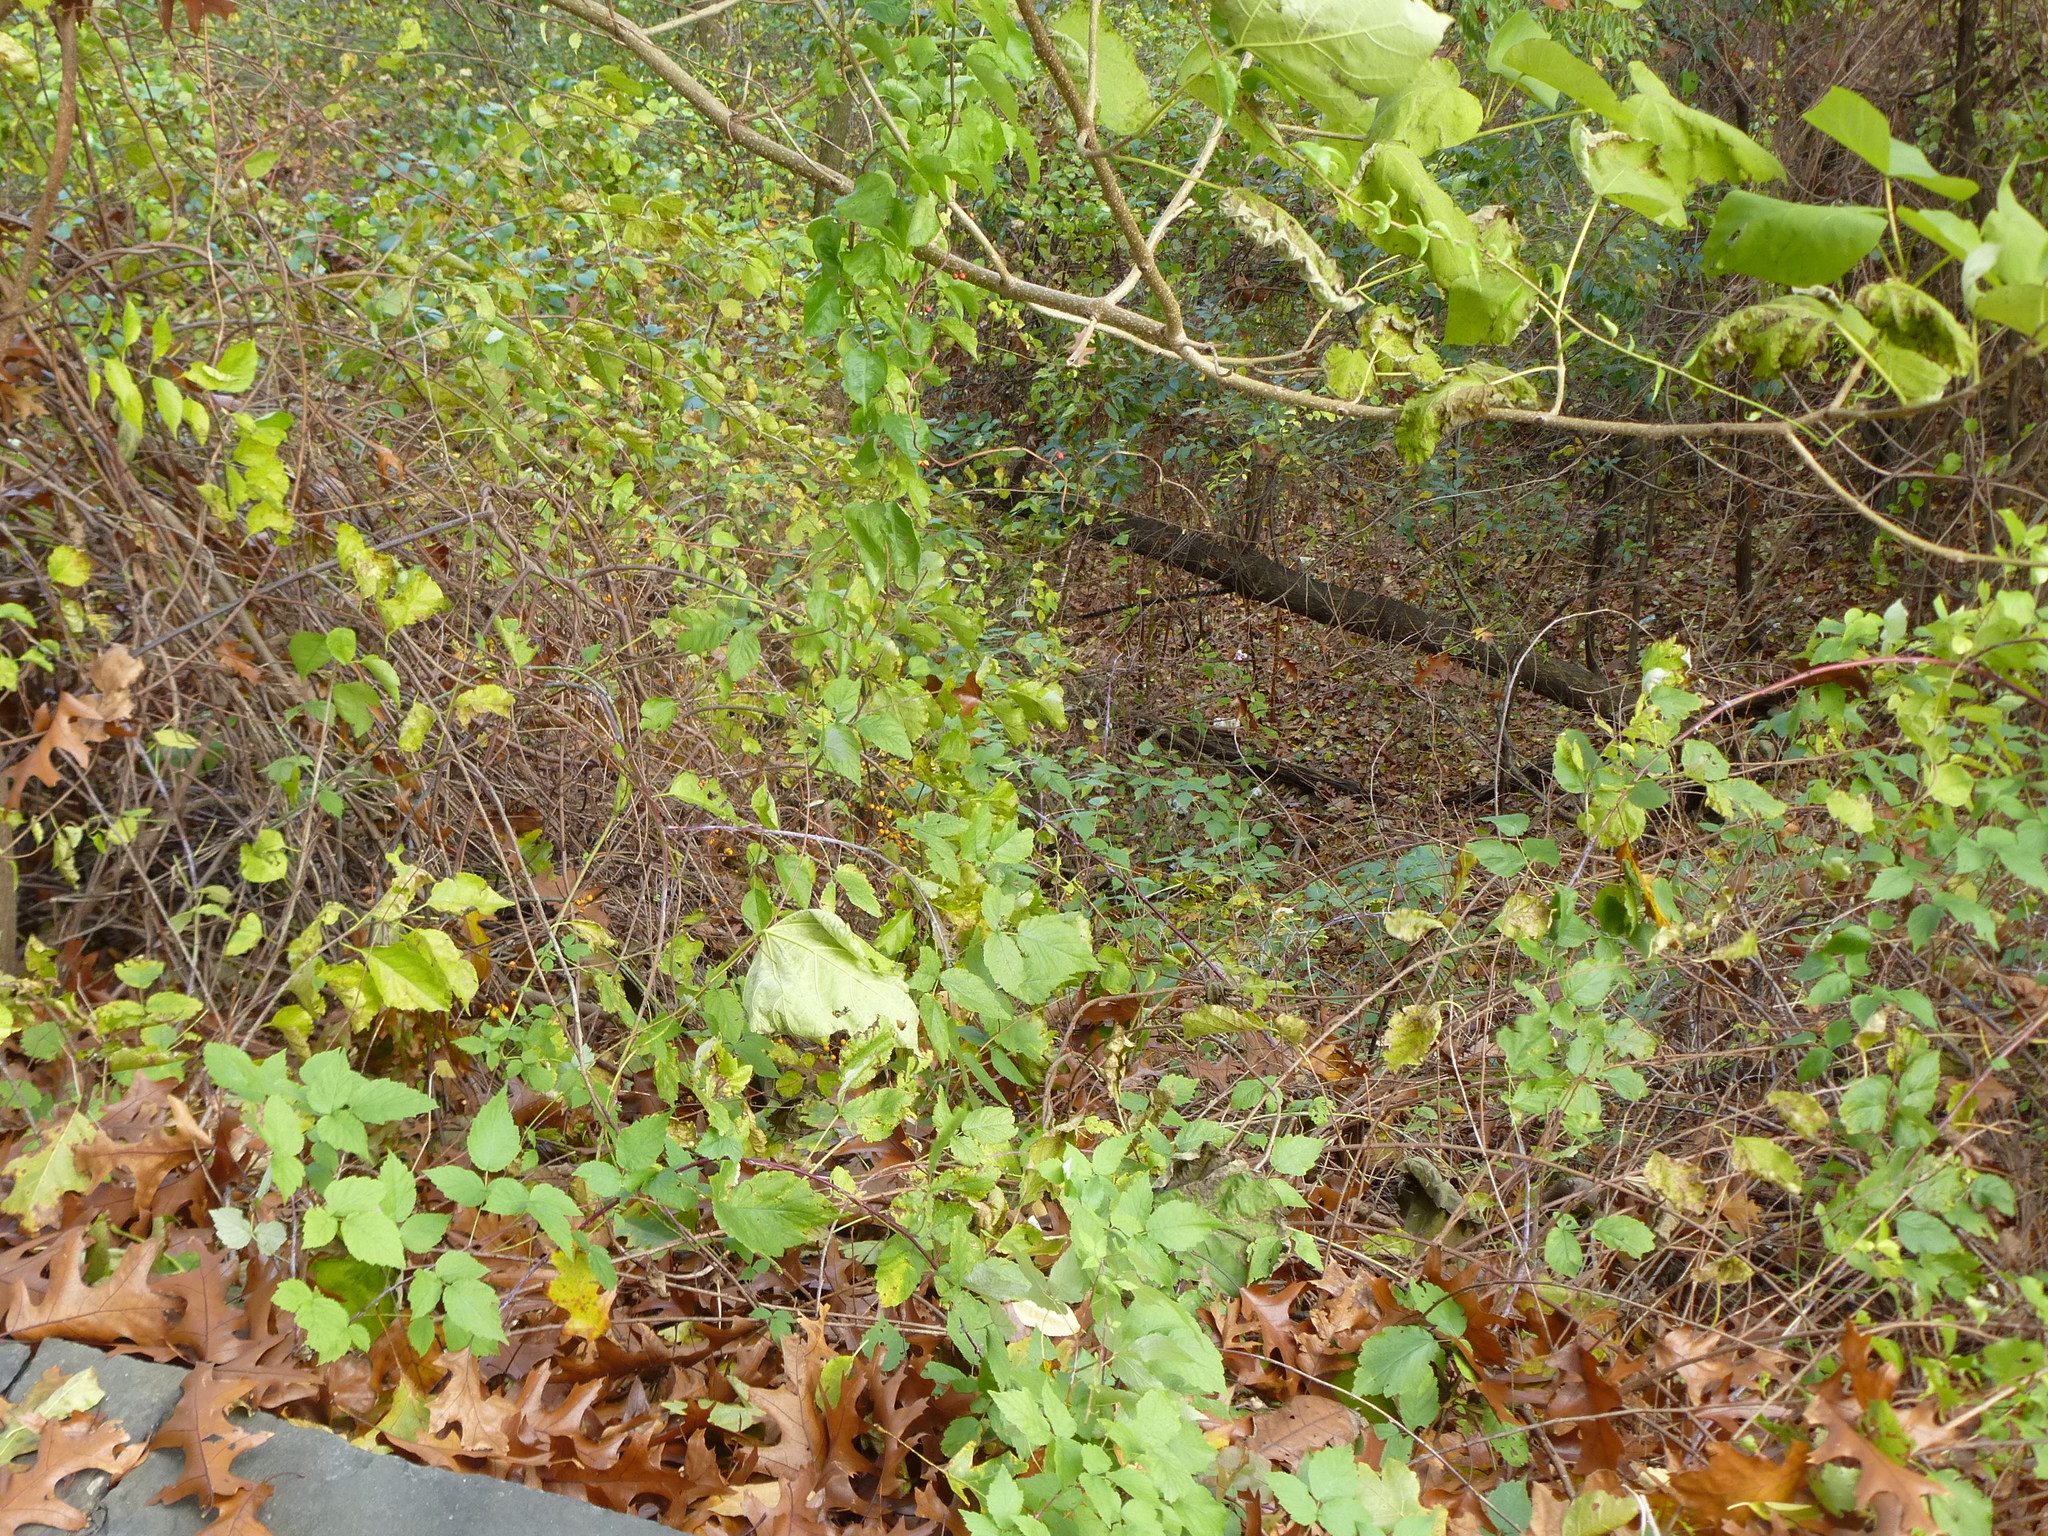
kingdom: Plantae
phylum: Tracheophyta
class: Magnoliopsida
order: Lamiales
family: Paulowniaceae
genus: Paulownia
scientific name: Paulownia tomentosa
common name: Foxglove-tree
